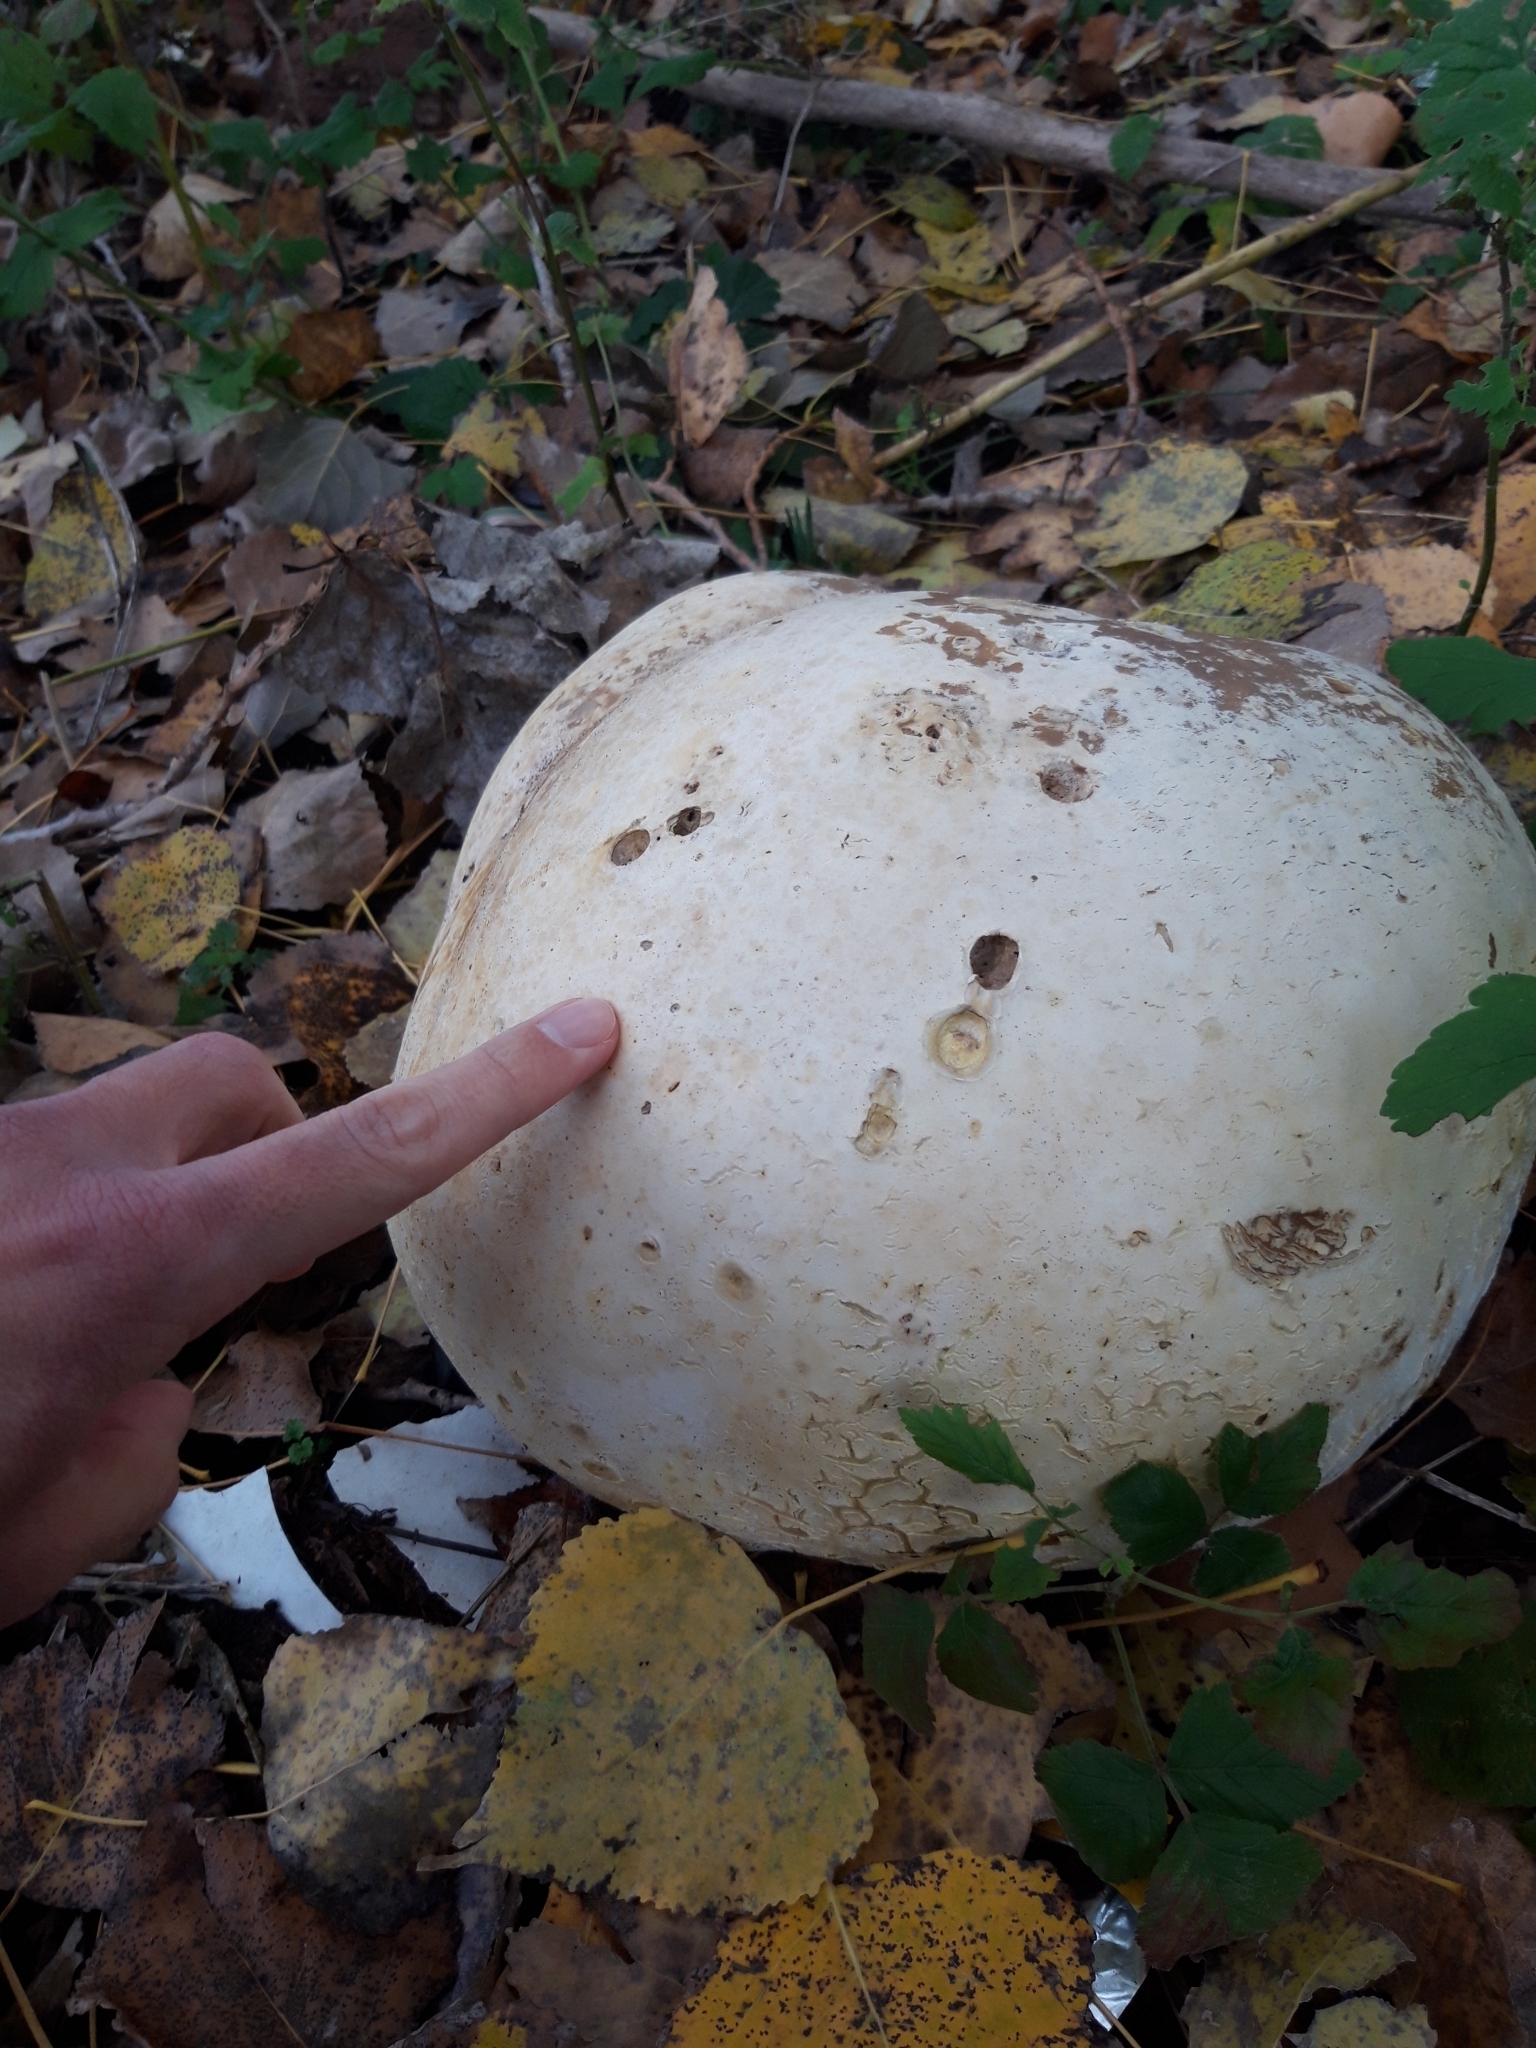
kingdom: Fungi
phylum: Basidiomycota
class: Agaricomycetes
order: Agaricales
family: Lycoperdaceae
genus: Calvatia
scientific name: Calvatia gigantea
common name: Giant puffball
